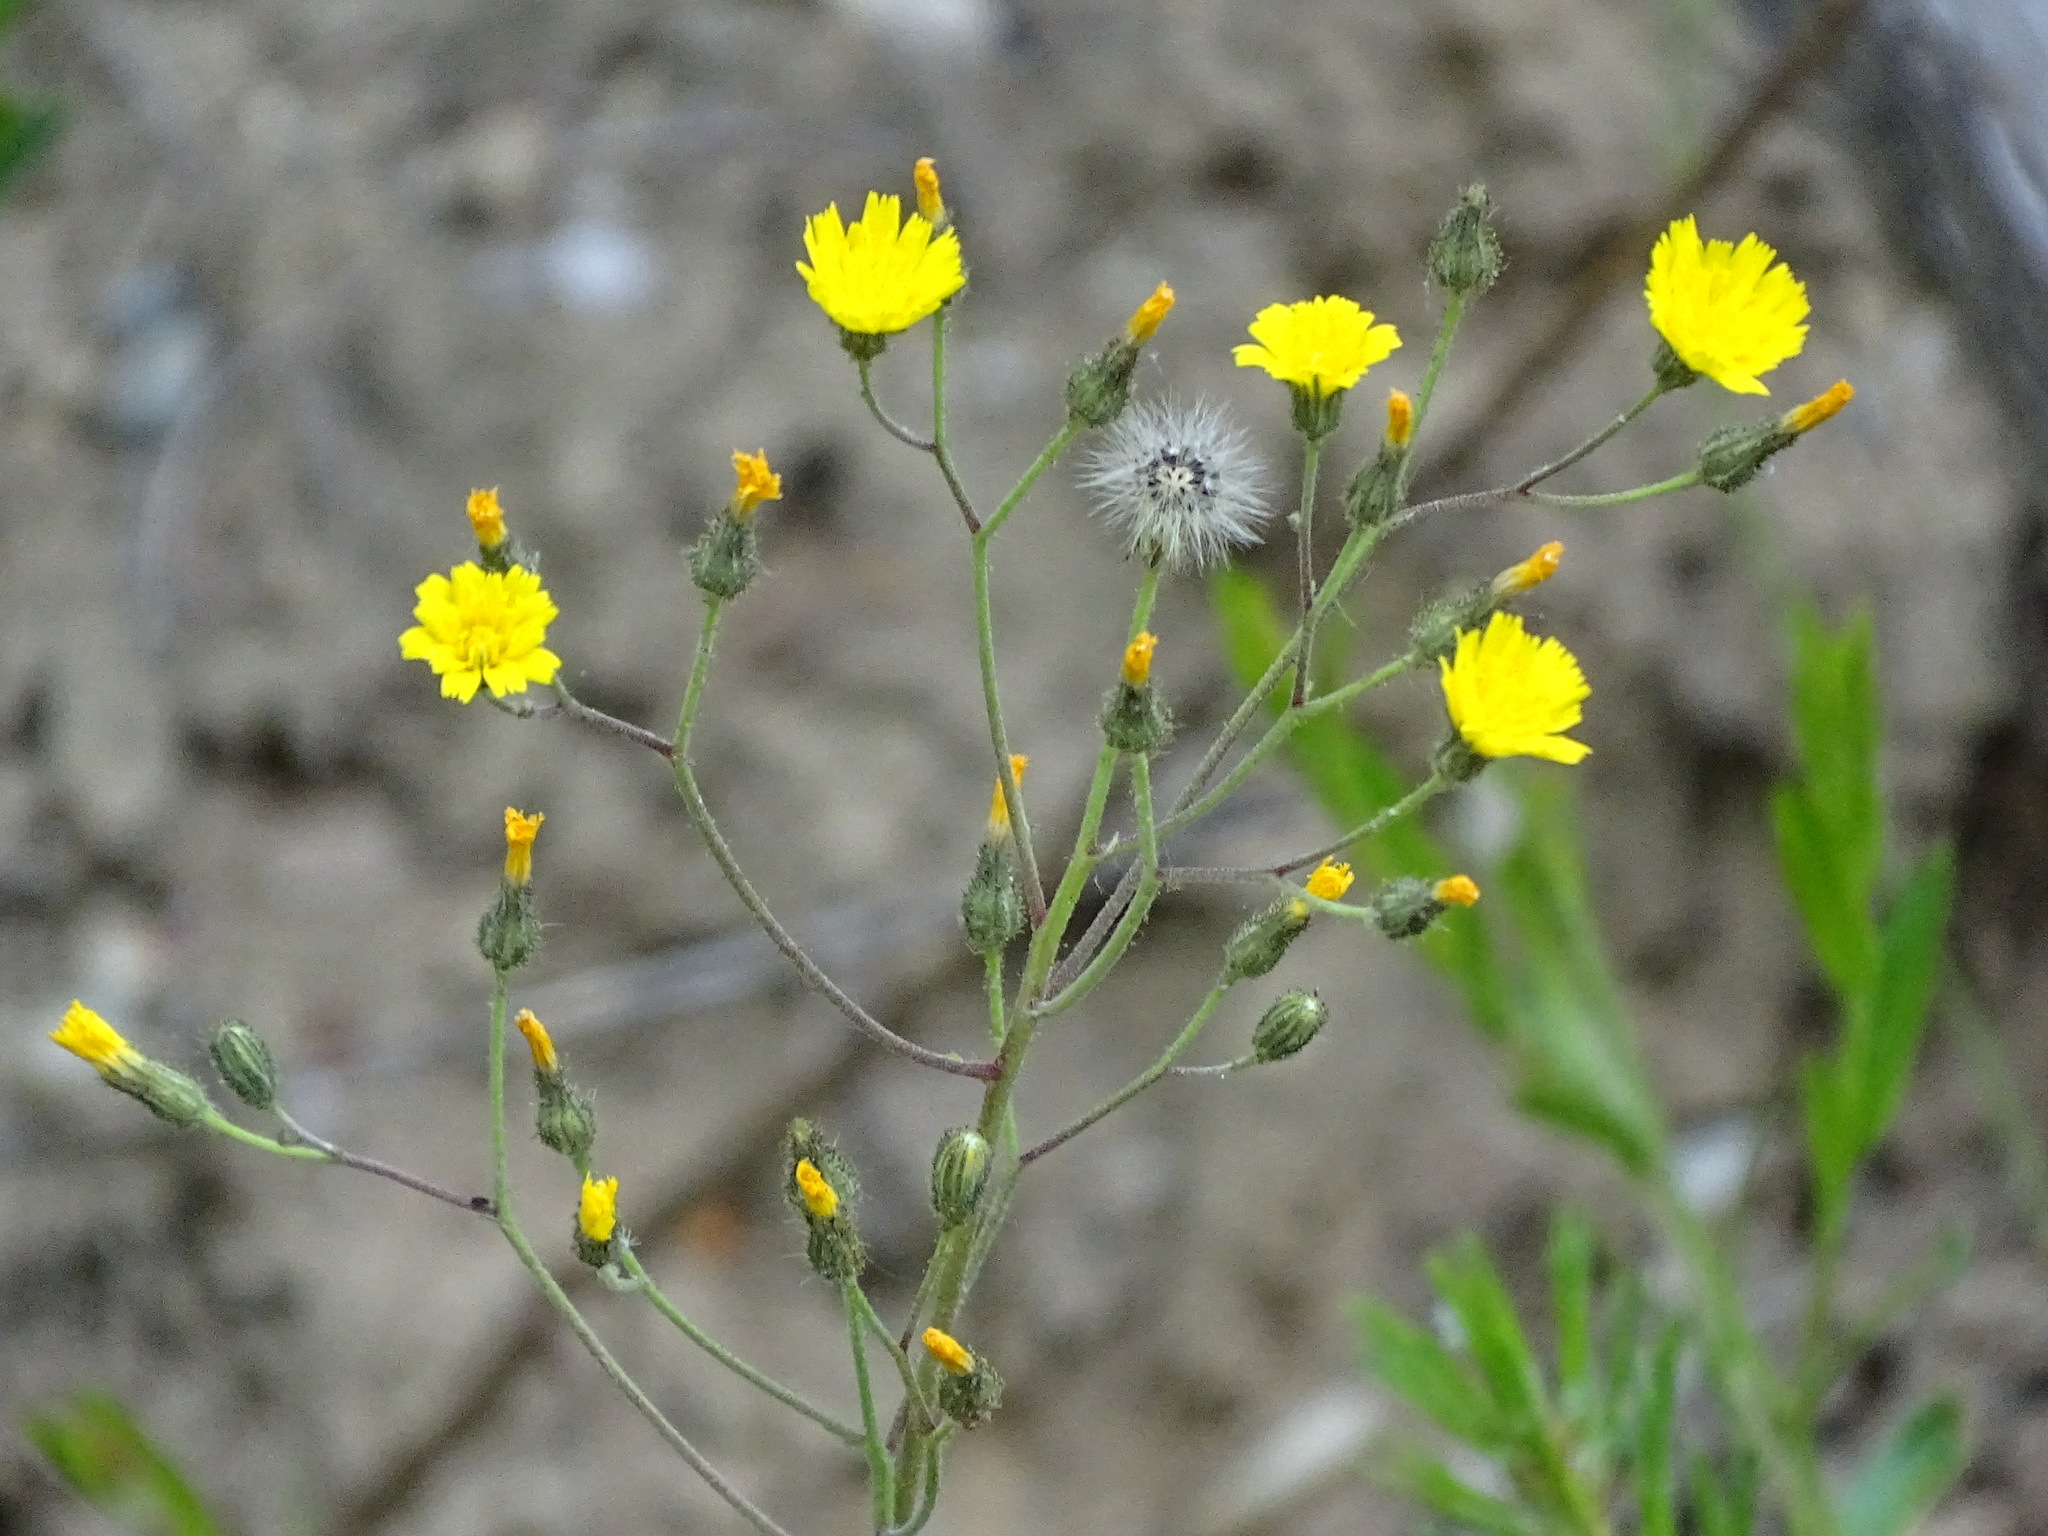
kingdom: Plantae
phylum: Tracheophyta
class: Magnoliopsida
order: Asterales
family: Asteraceae
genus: Pilosella
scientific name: Pilosella bauhini
